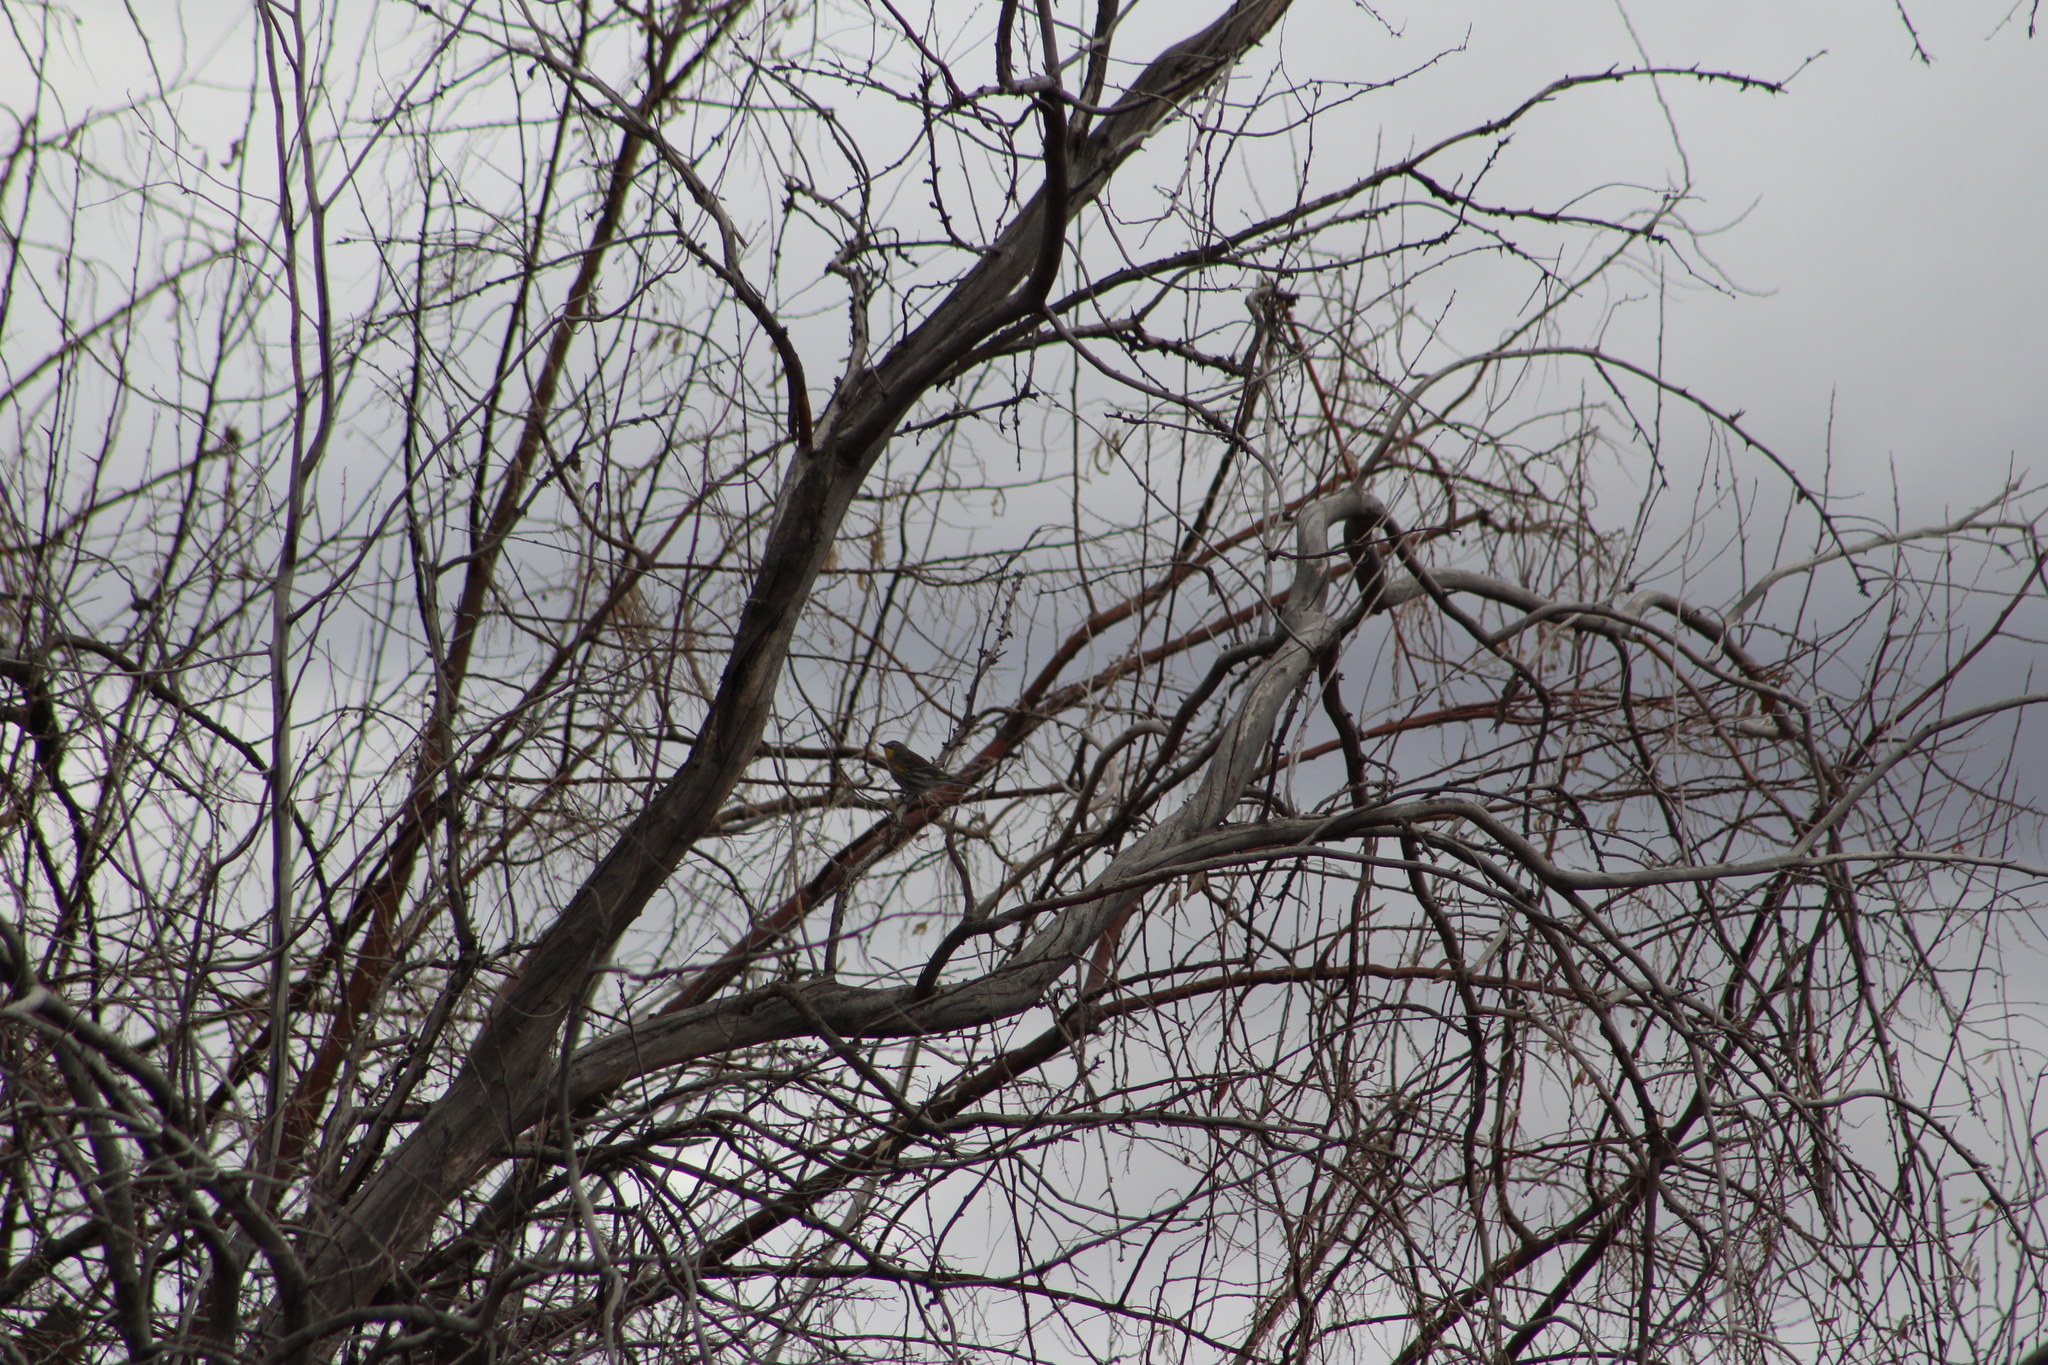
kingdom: Animalia
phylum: Chordata
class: Aves
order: Passeriformes
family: Parulidae
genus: Setophaga
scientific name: Setophaga coronata
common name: Myrtle warbler
